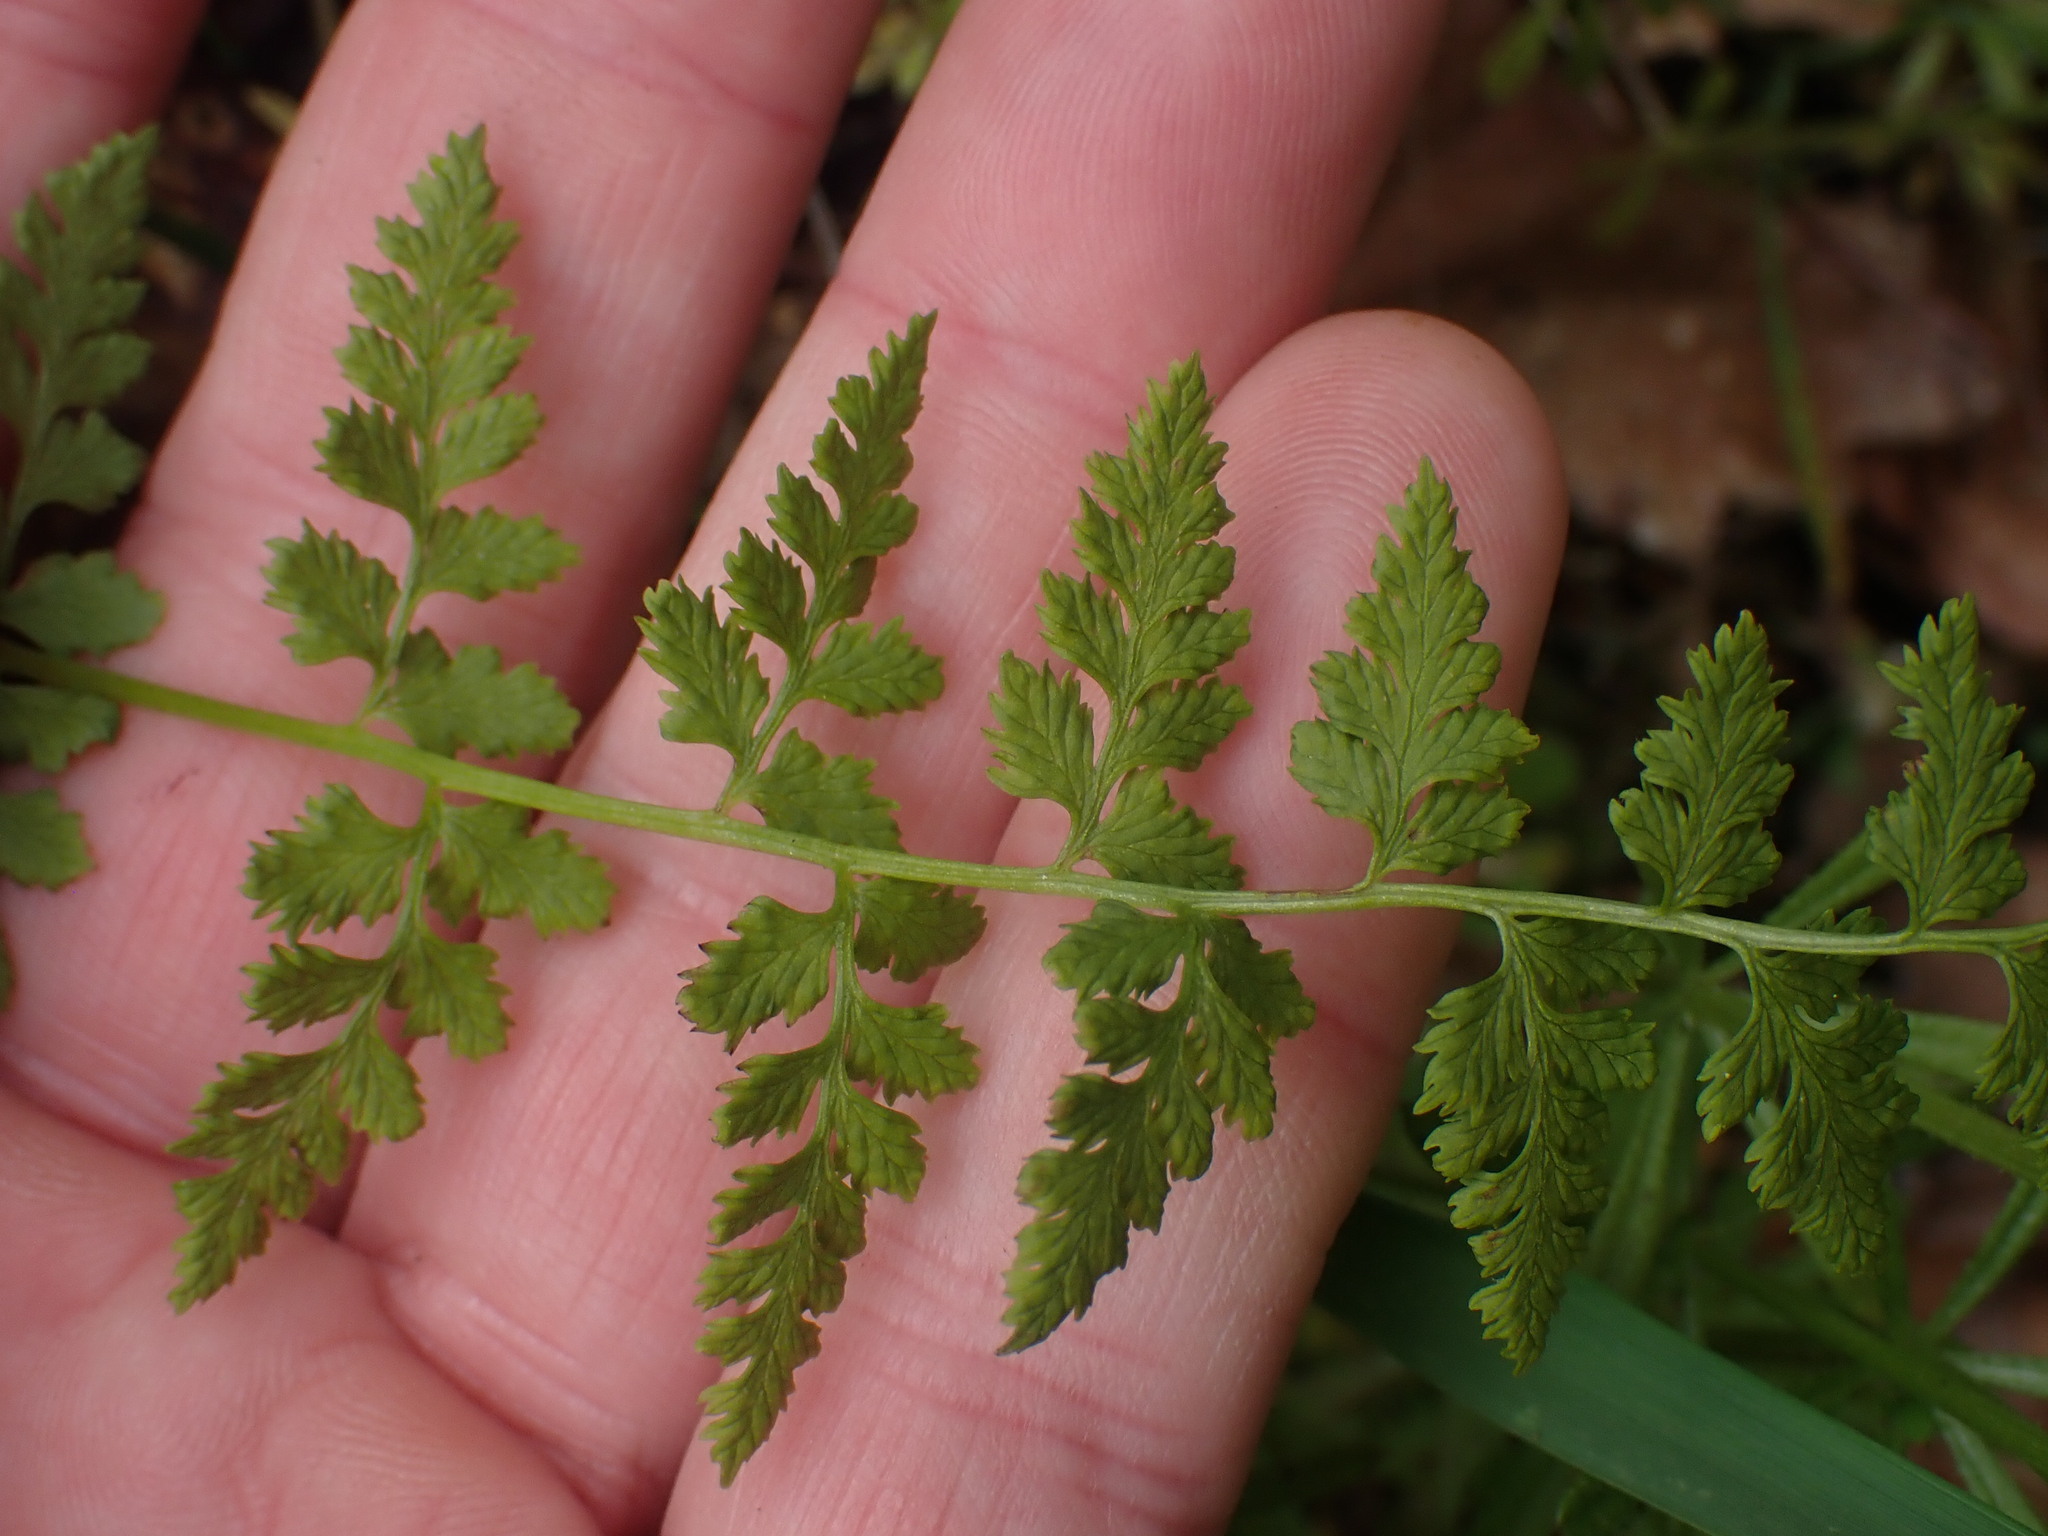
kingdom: Plantae
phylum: Tracheophyta
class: Polypodiopsida
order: Polypodiales
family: Cystopteridaceae
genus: Cystopteris
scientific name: Cystopteris fragilis
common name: Brittle bladder fern
